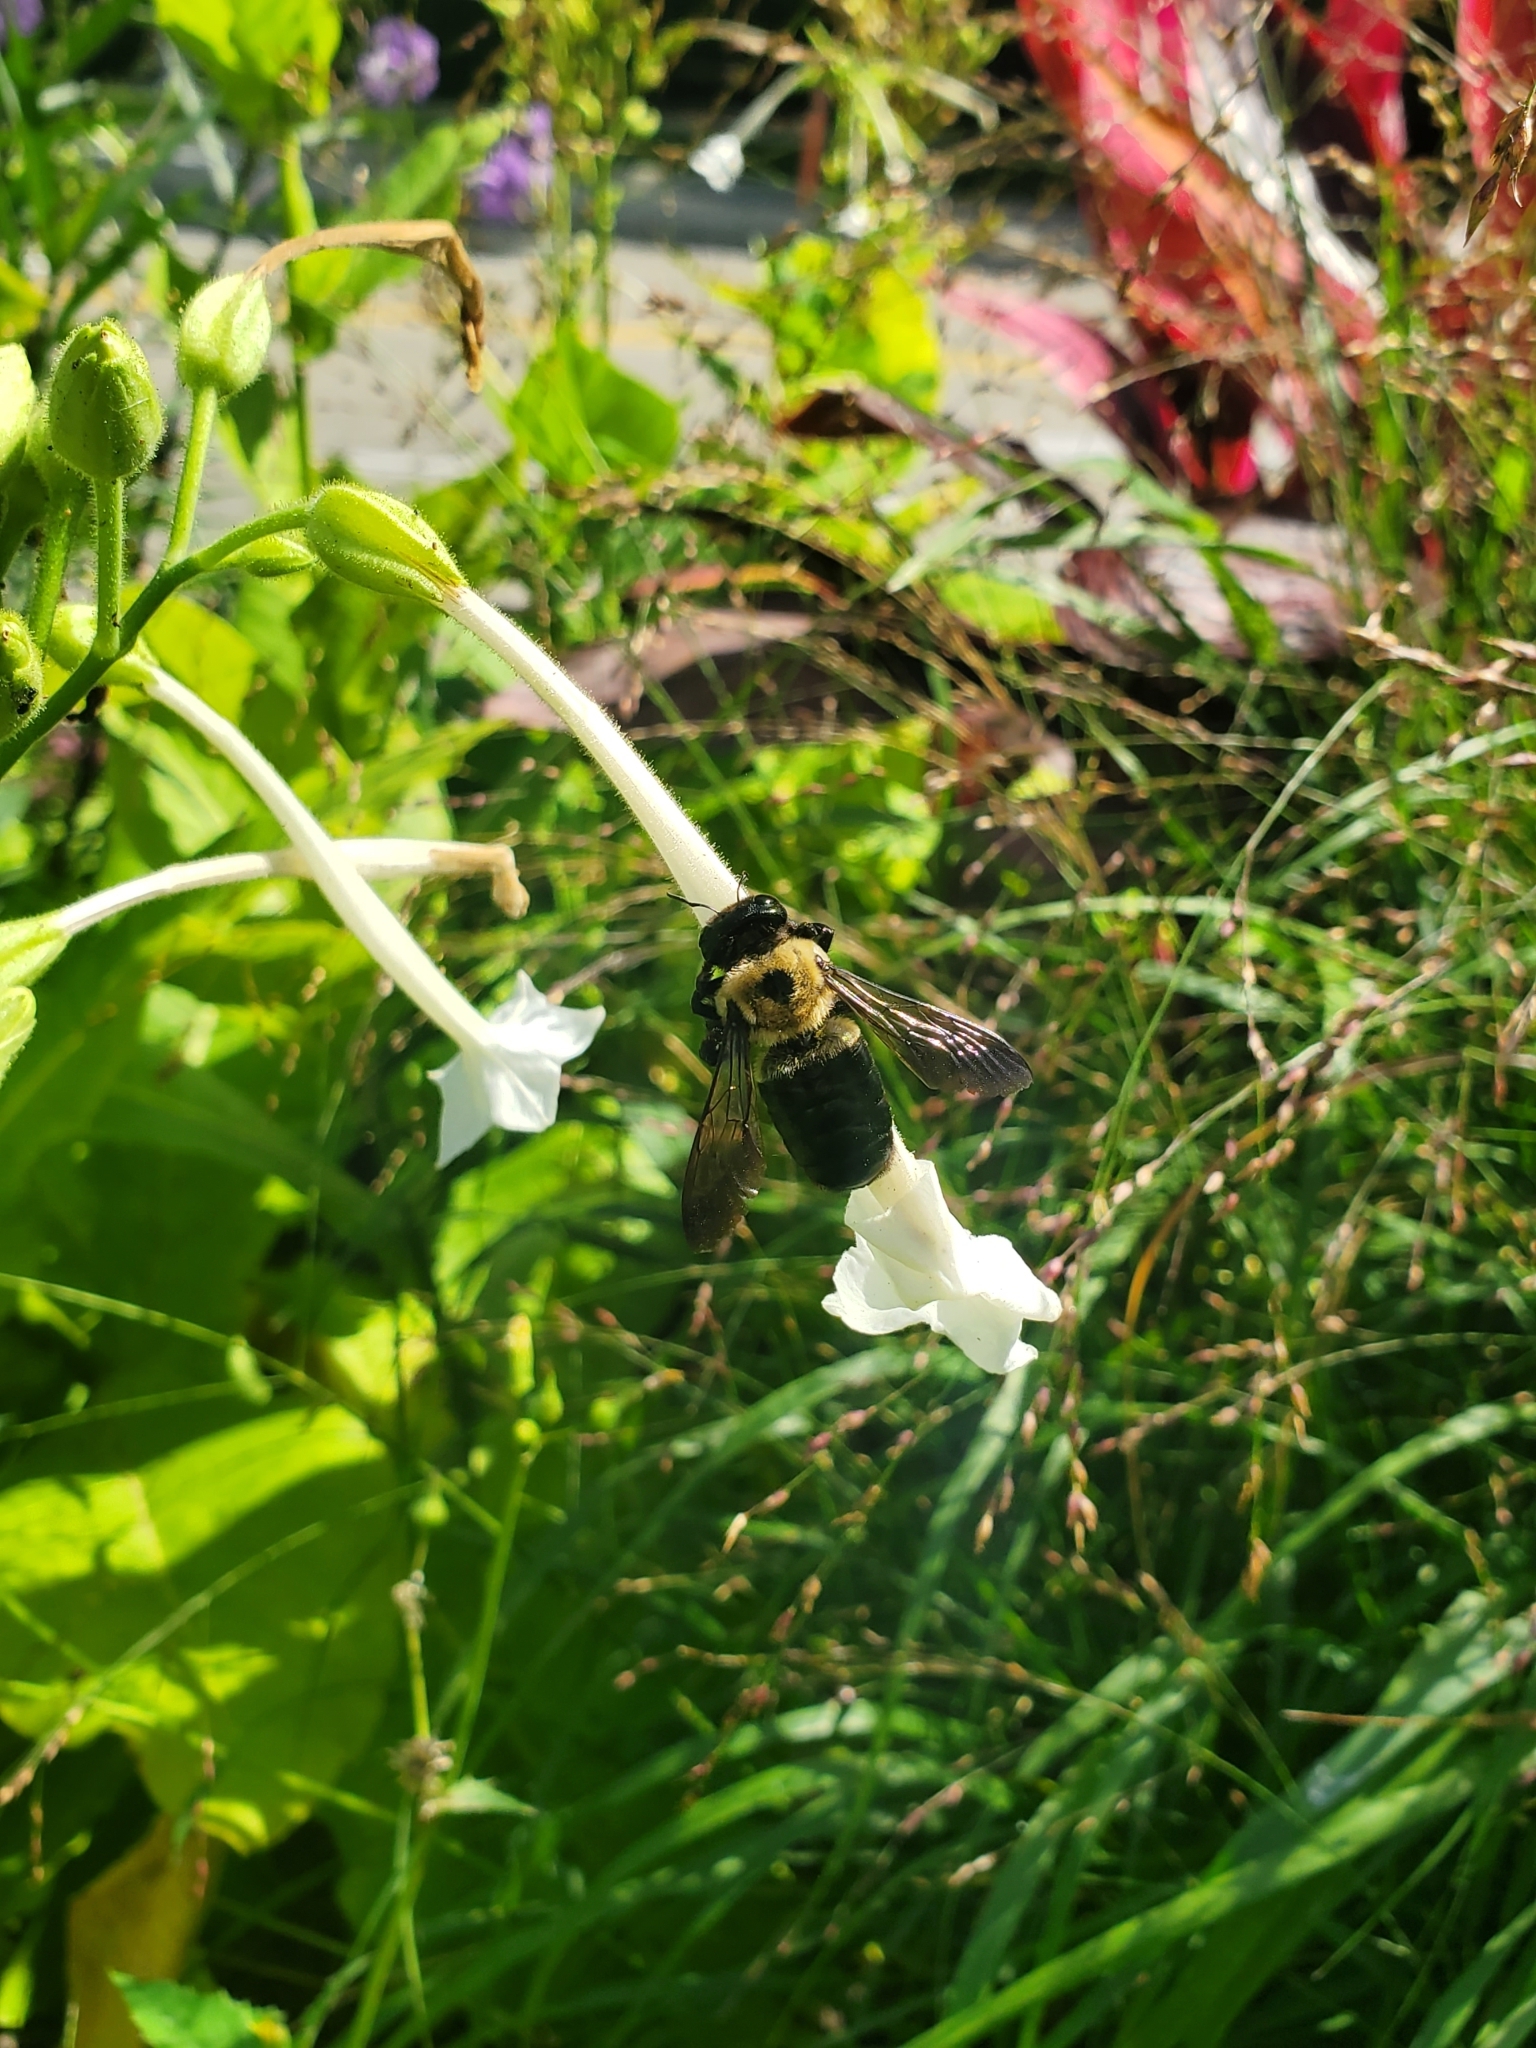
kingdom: Animalia
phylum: Arthropoda
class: Insecta
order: Hymenoptera
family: Apidae
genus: Xylocopa
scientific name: Xylocopa virginica
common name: Carpenter bee
